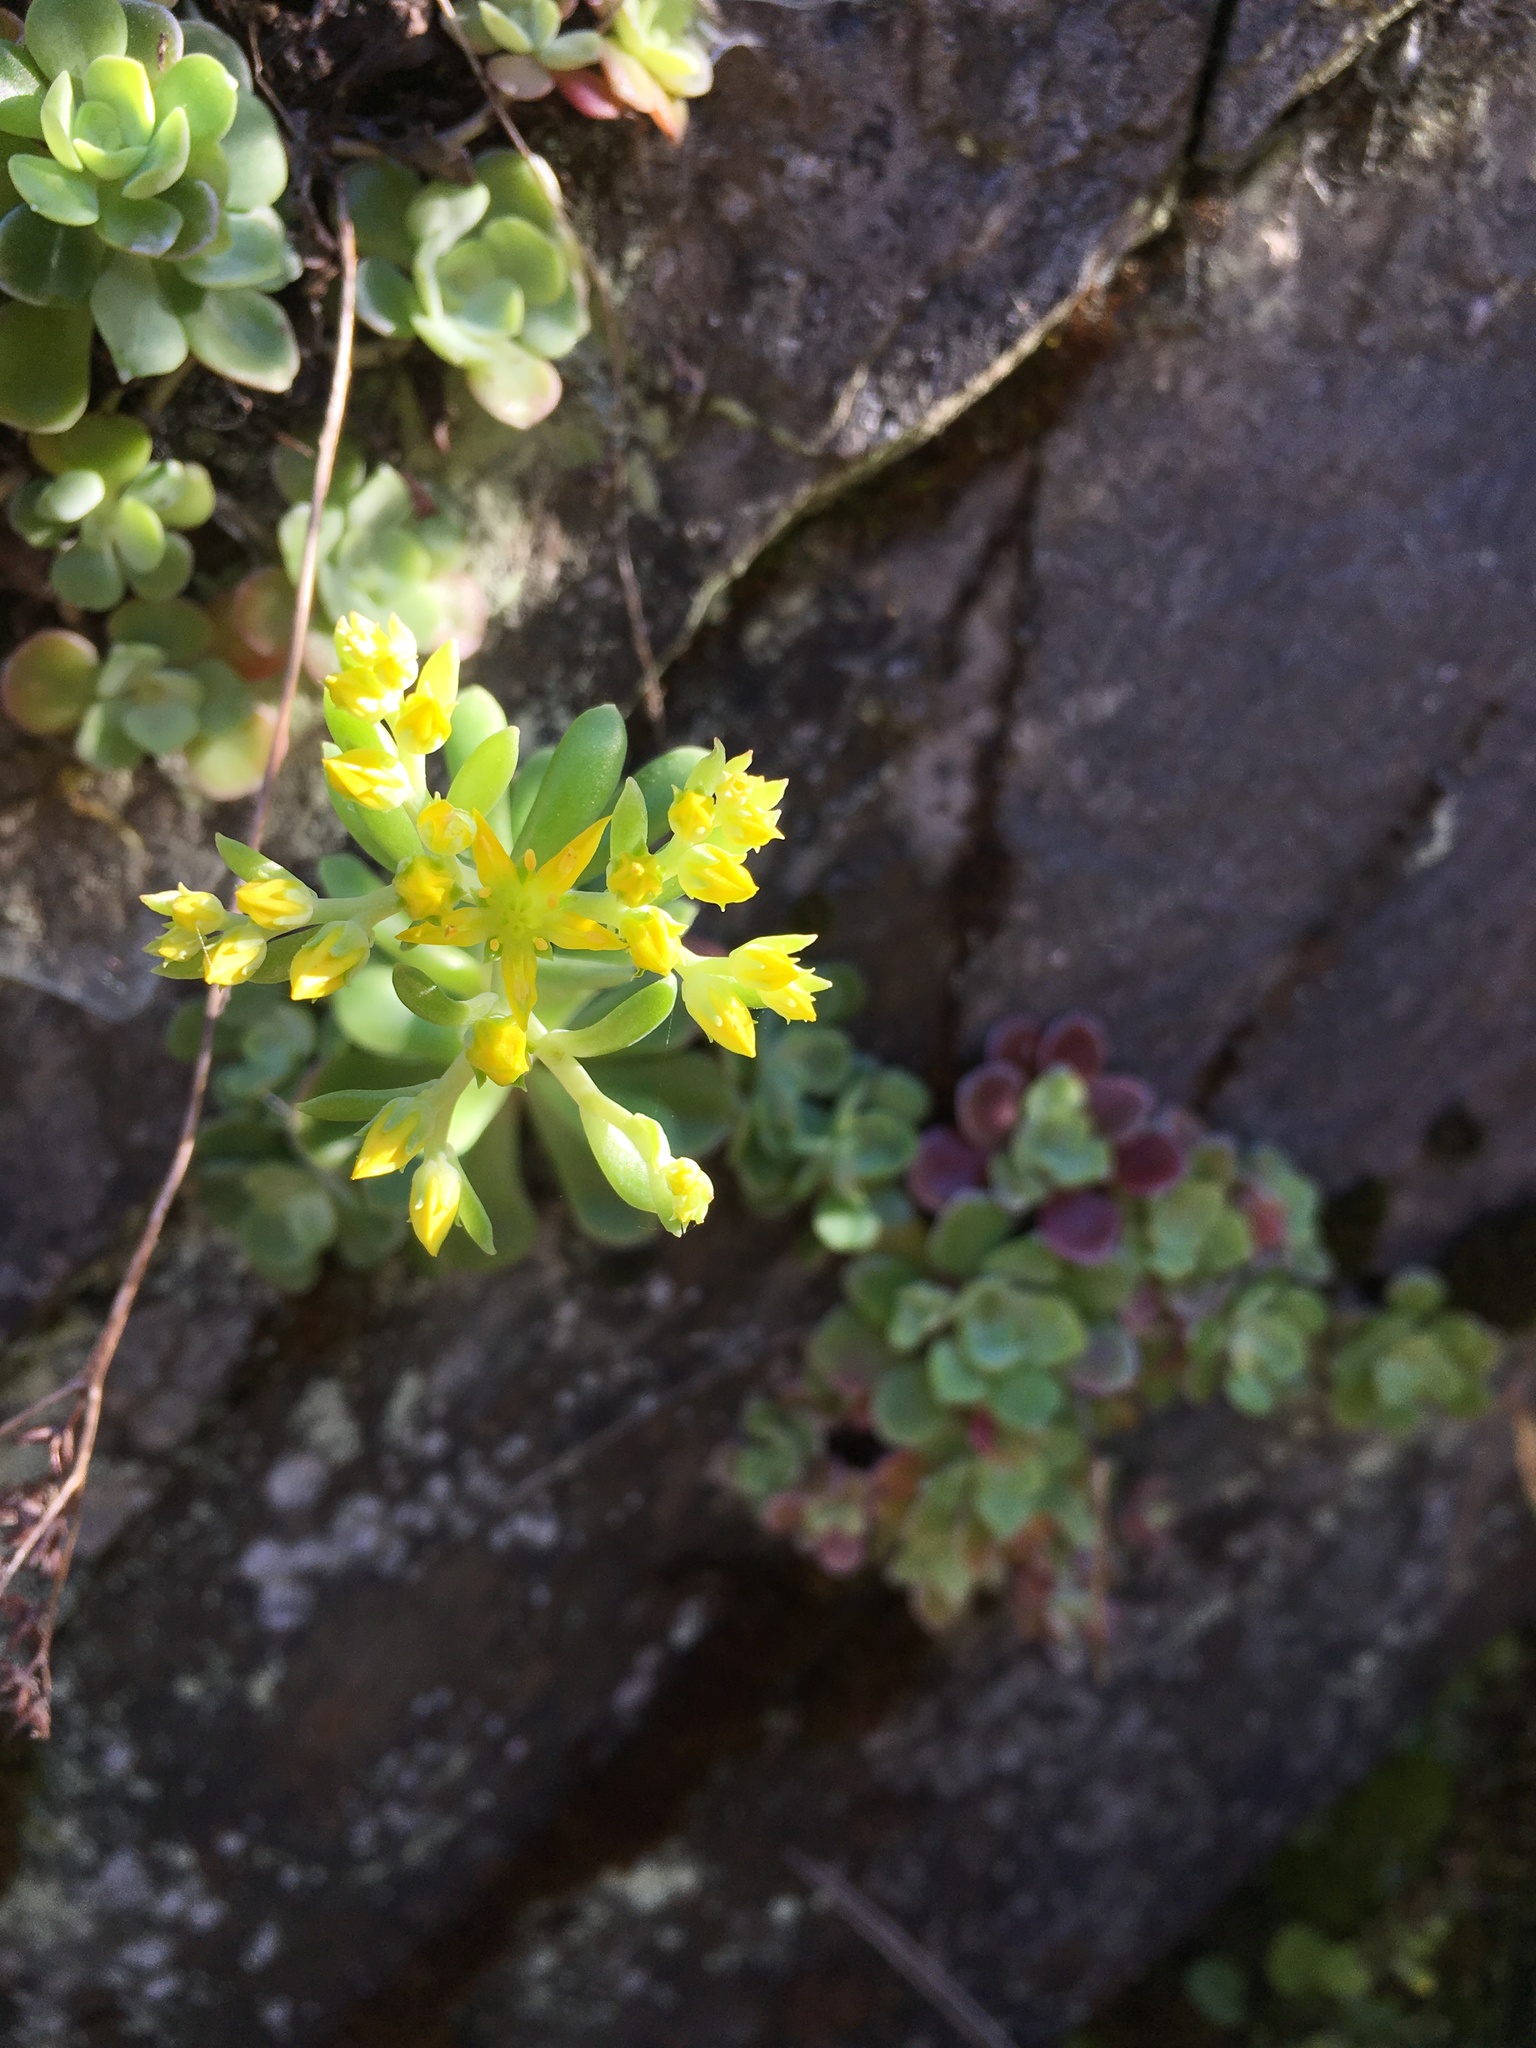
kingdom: Plantae
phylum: Tracheophyta
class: Magnoliopsida
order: Saxifragales
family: Crassulaceae
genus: Sedum
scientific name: Sedum spathulifolium
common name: Colorado stonecrop
